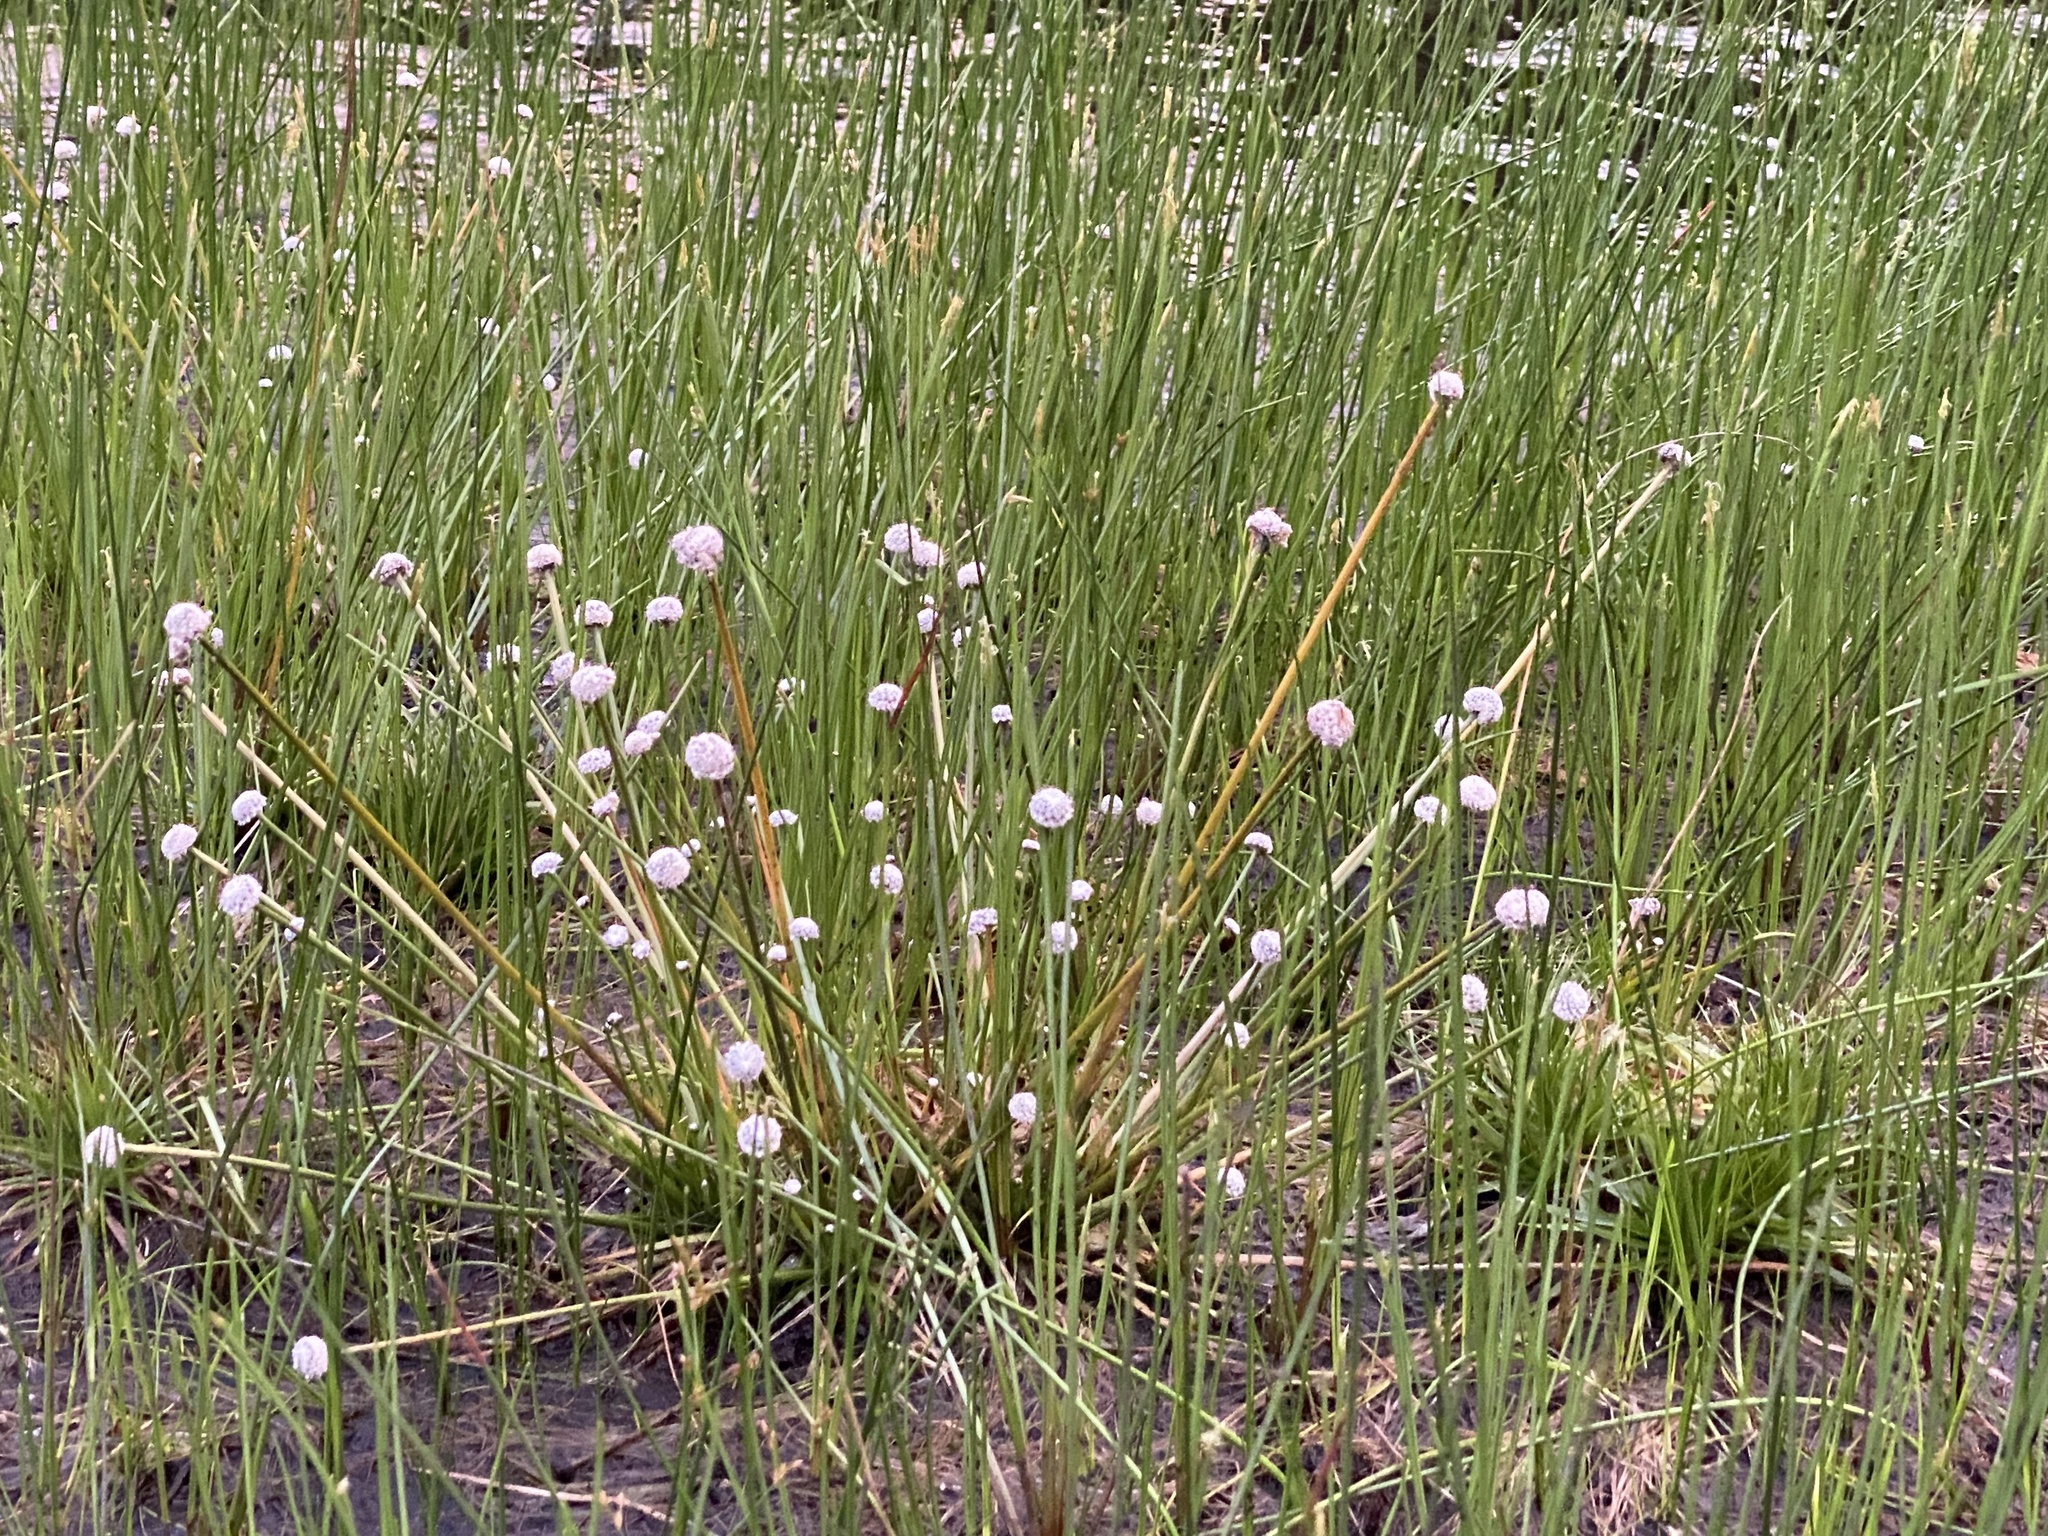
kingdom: Plantae
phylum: Tracheophyta
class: Liliopsida
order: Poales
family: Eriocaulaceae
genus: Eriocaulon
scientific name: Eriocaulon aquaticum
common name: Pipewort
